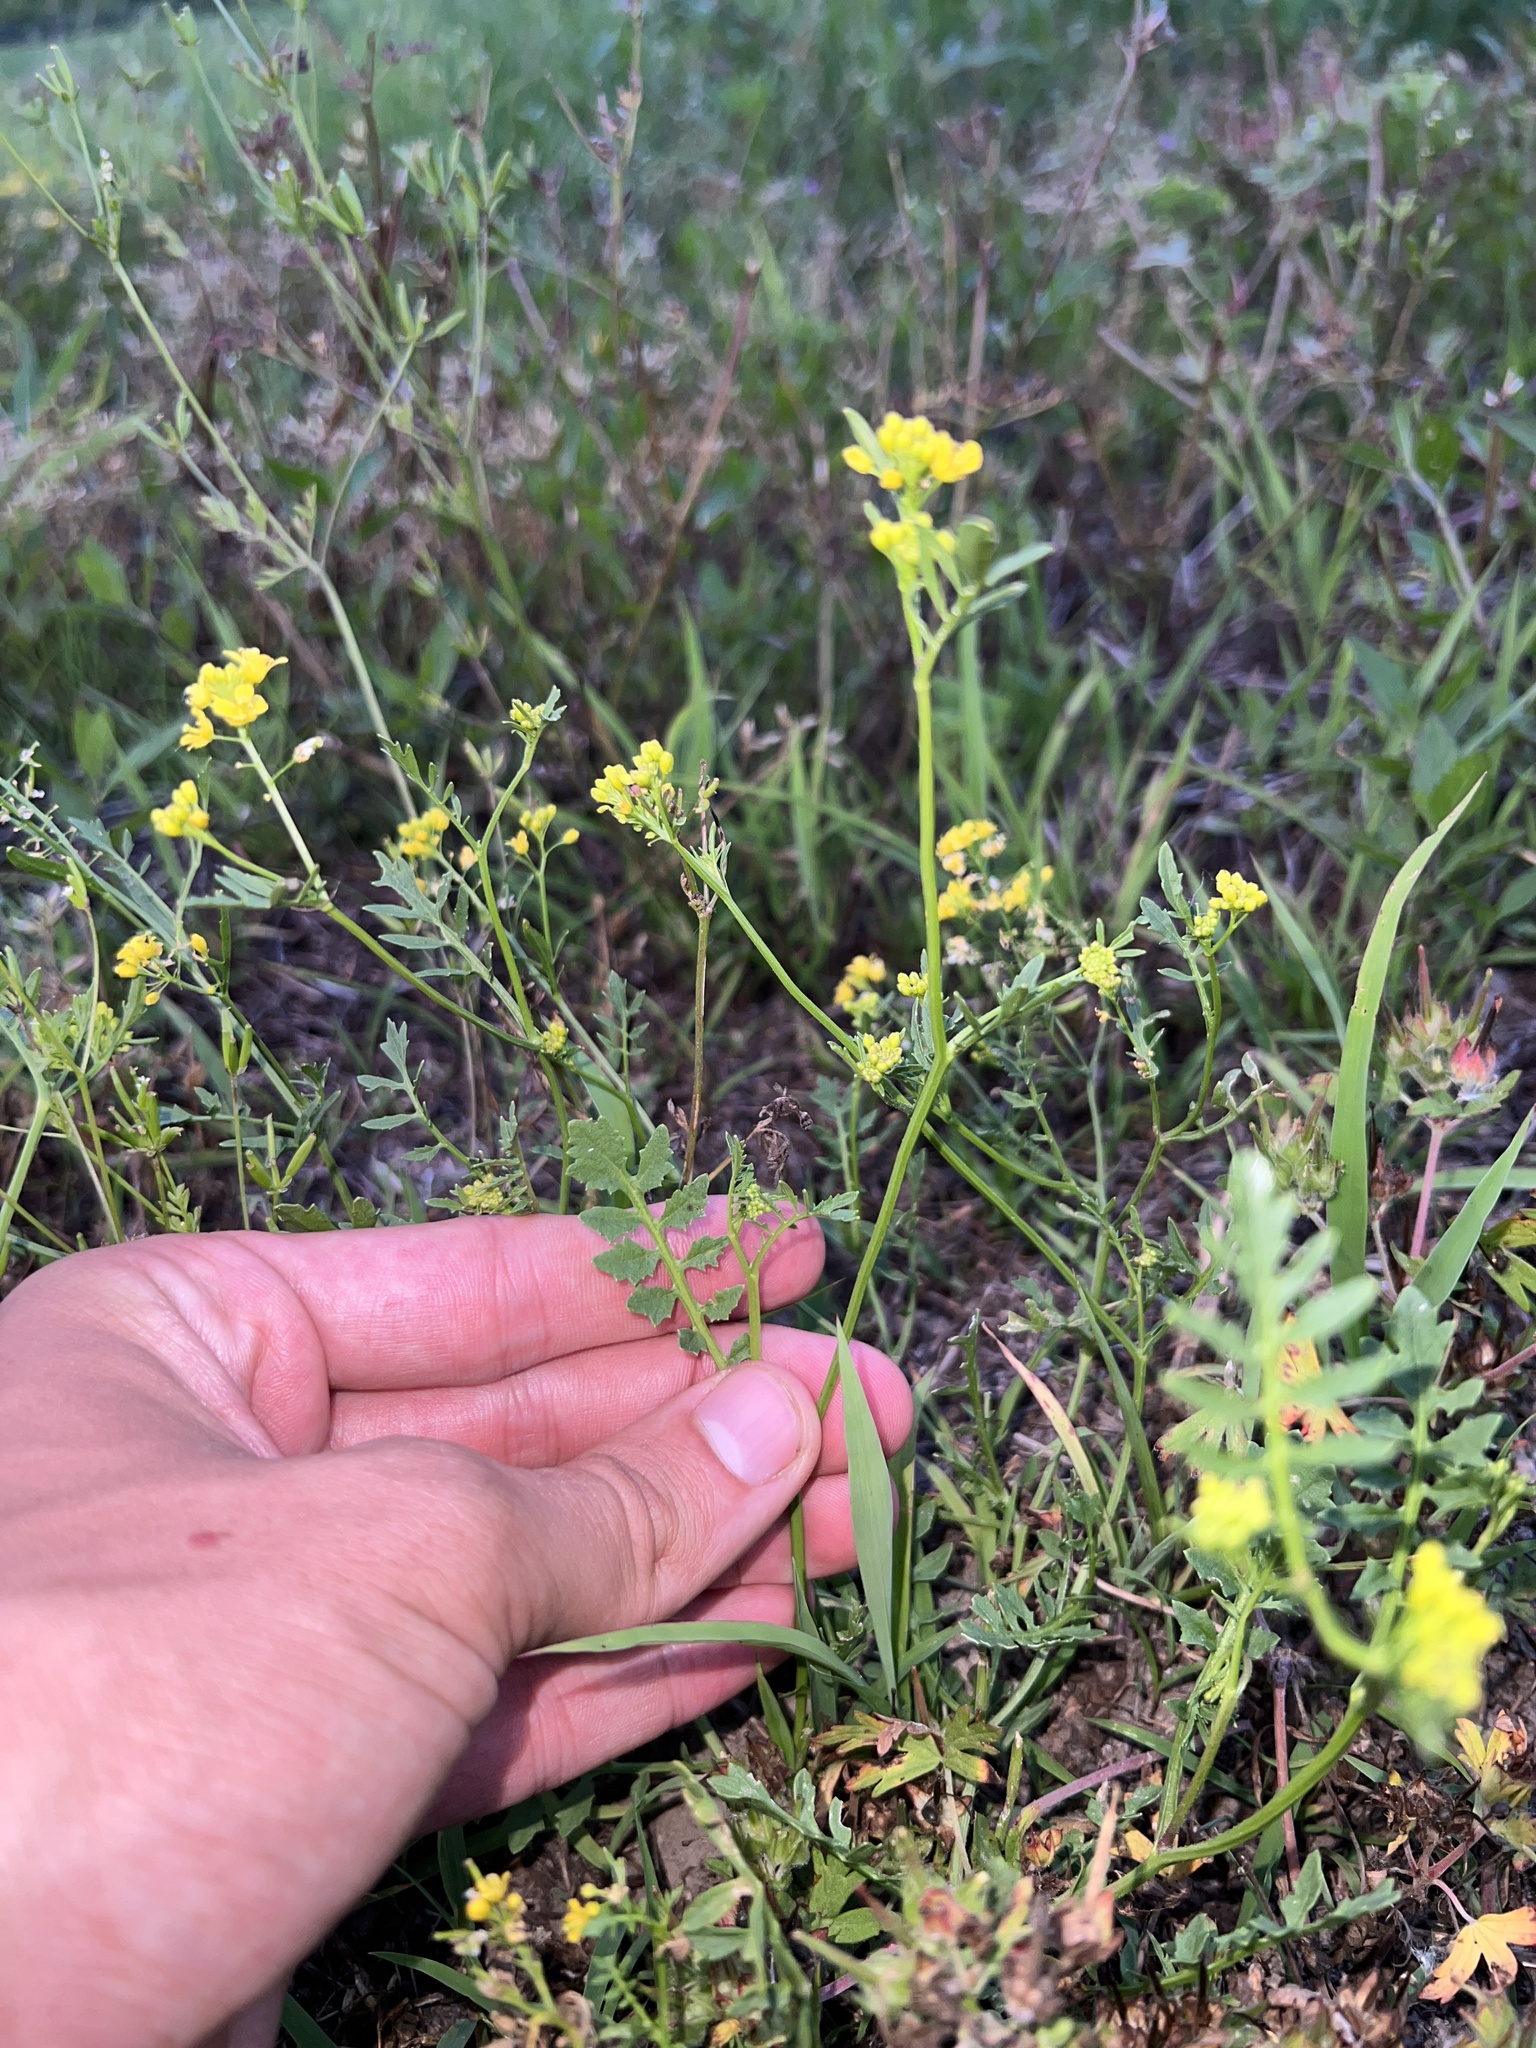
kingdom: Plantae
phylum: Tracheophyta
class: Magnoliopsida
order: Brassicales
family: Brassicaceae
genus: Rorippa
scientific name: Rorippa sylvestris
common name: Creeping yellowcress
